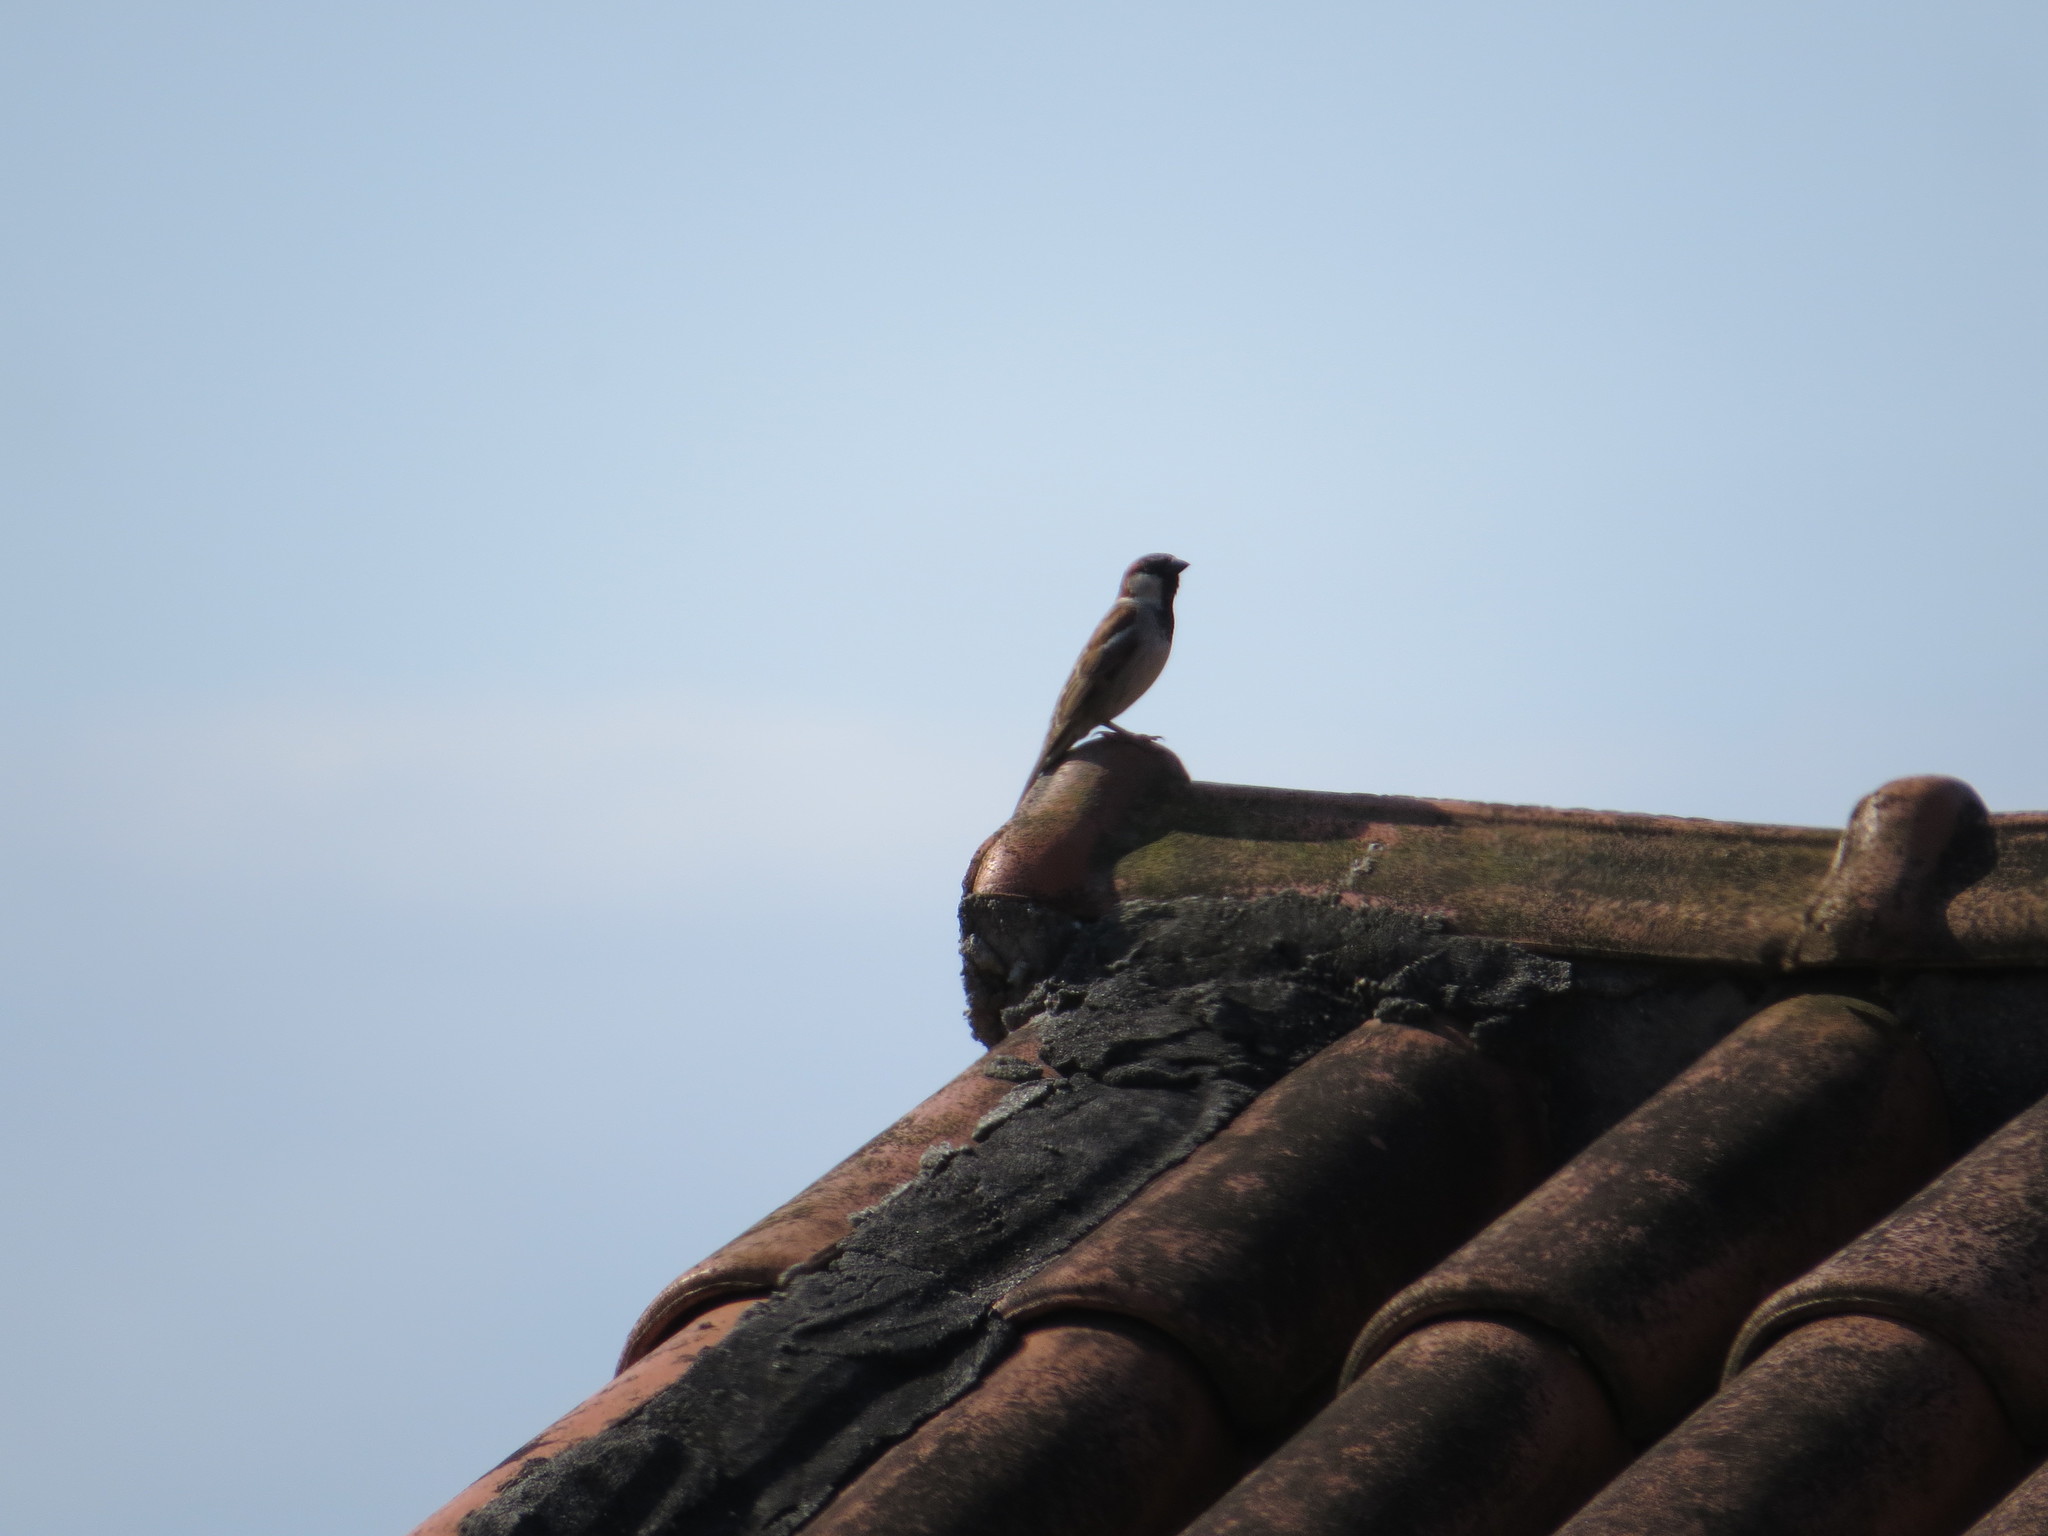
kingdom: Animalia
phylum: Chordata
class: Aves
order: Passeriformes
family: Passeridae
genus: Passer
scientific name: Passer domesticus
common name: House sparrow
